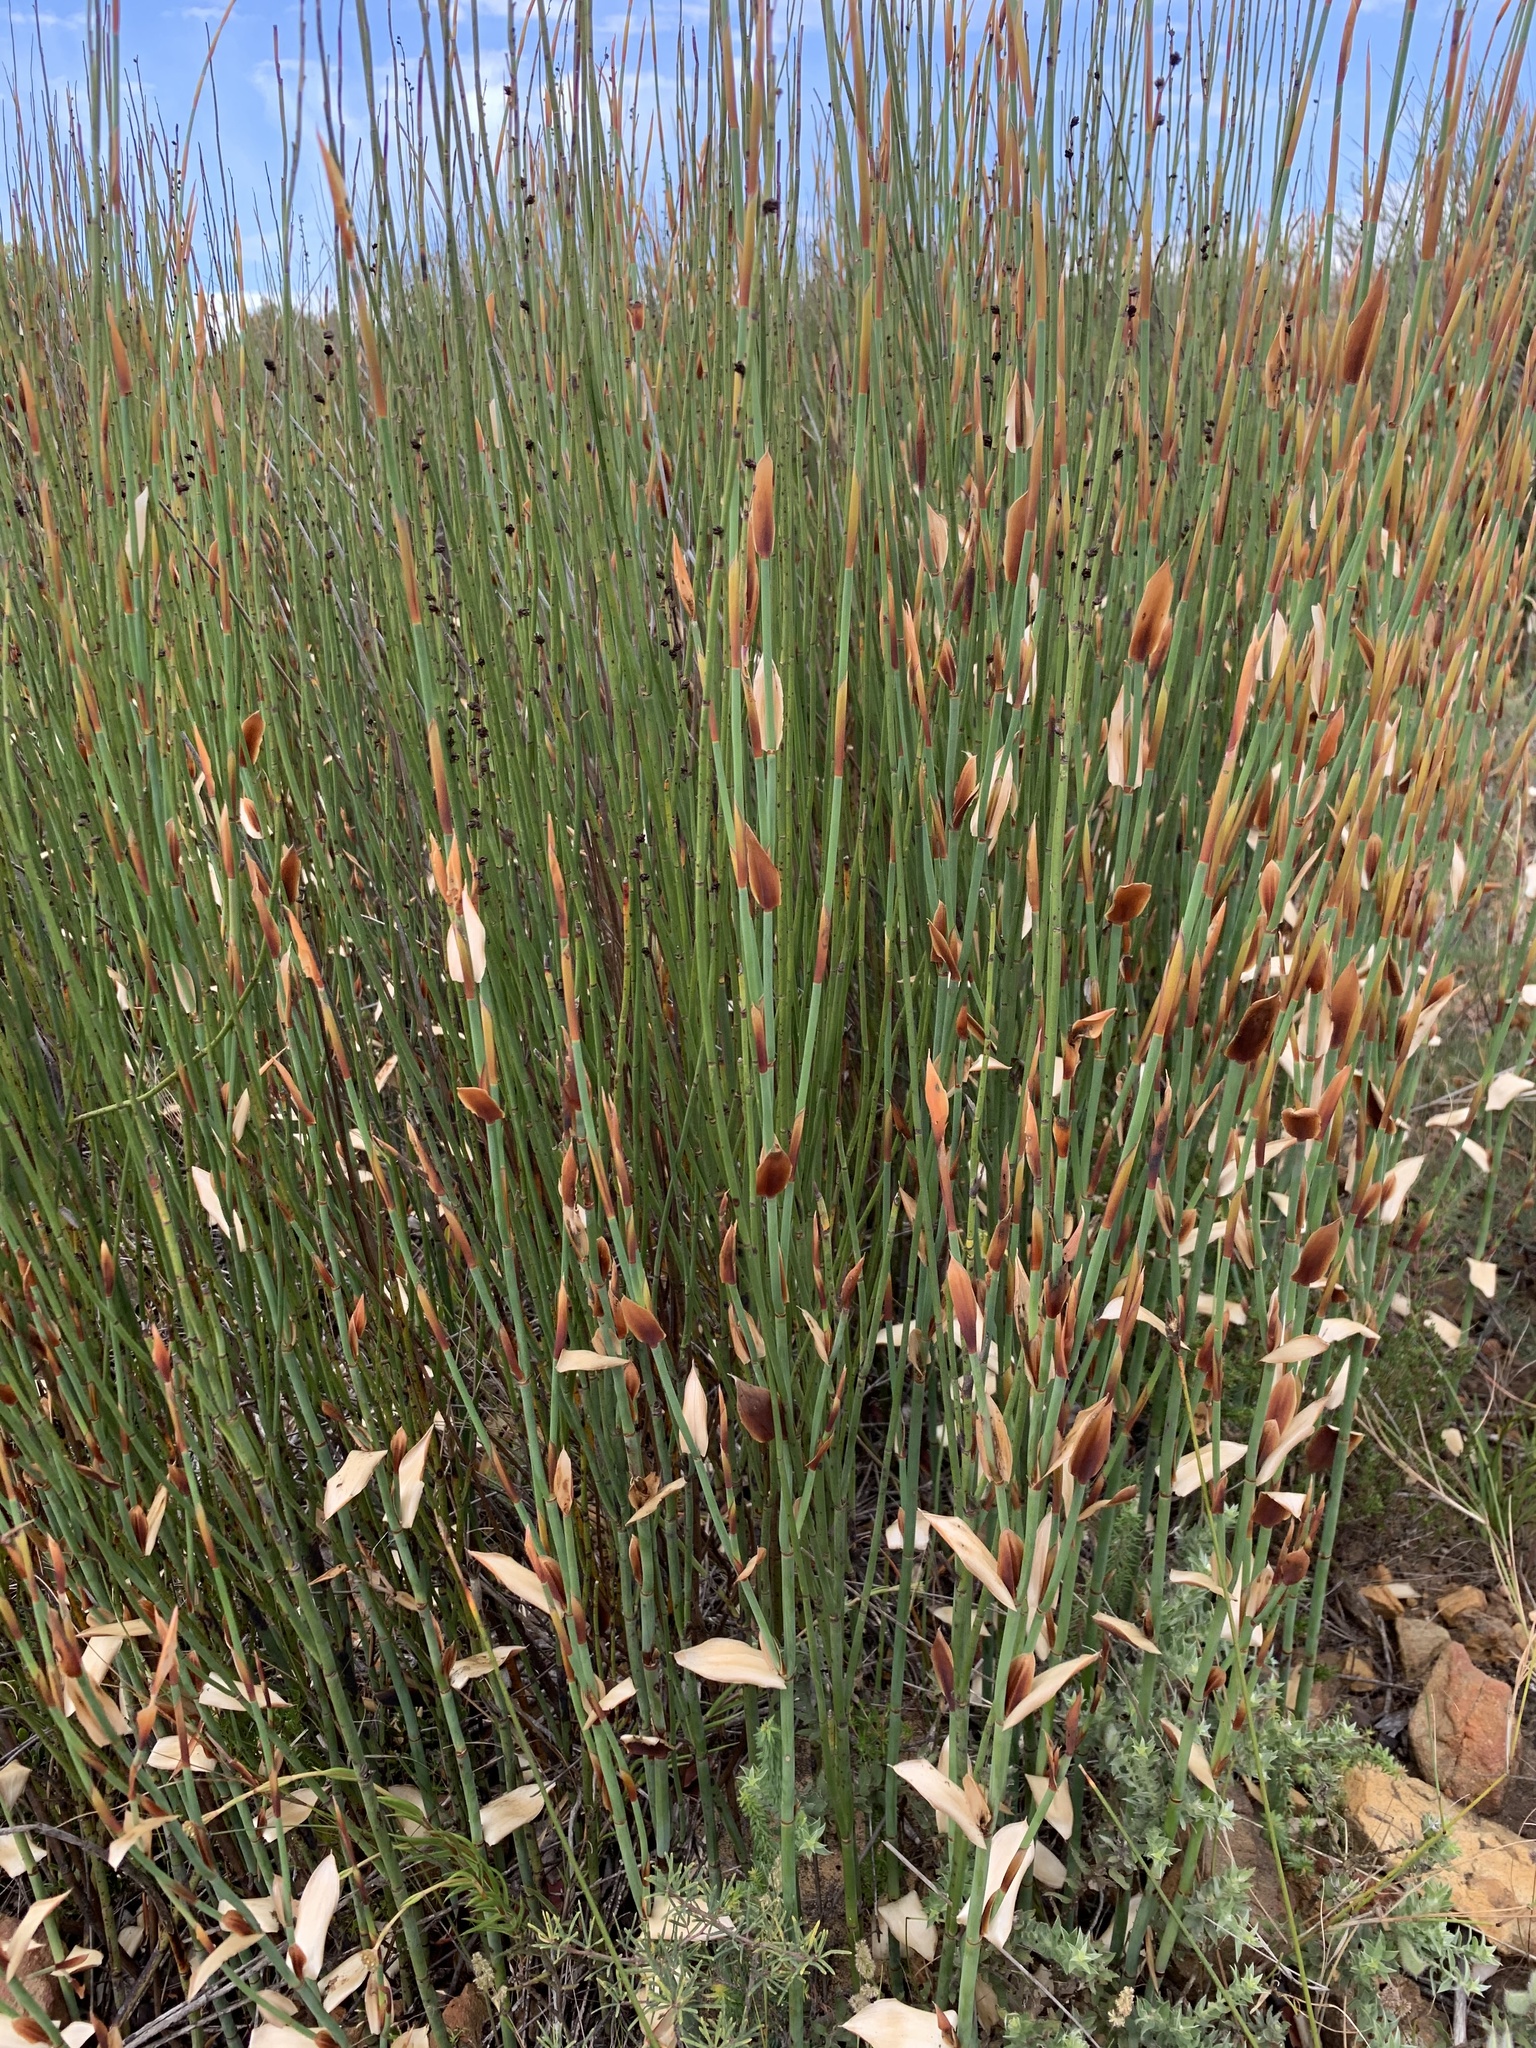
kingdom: Plantae
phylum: Tracheophyta
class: Liliopsida
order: Poales
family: Restionaceae
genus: Elegia
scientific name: Elegia macrocarpa
